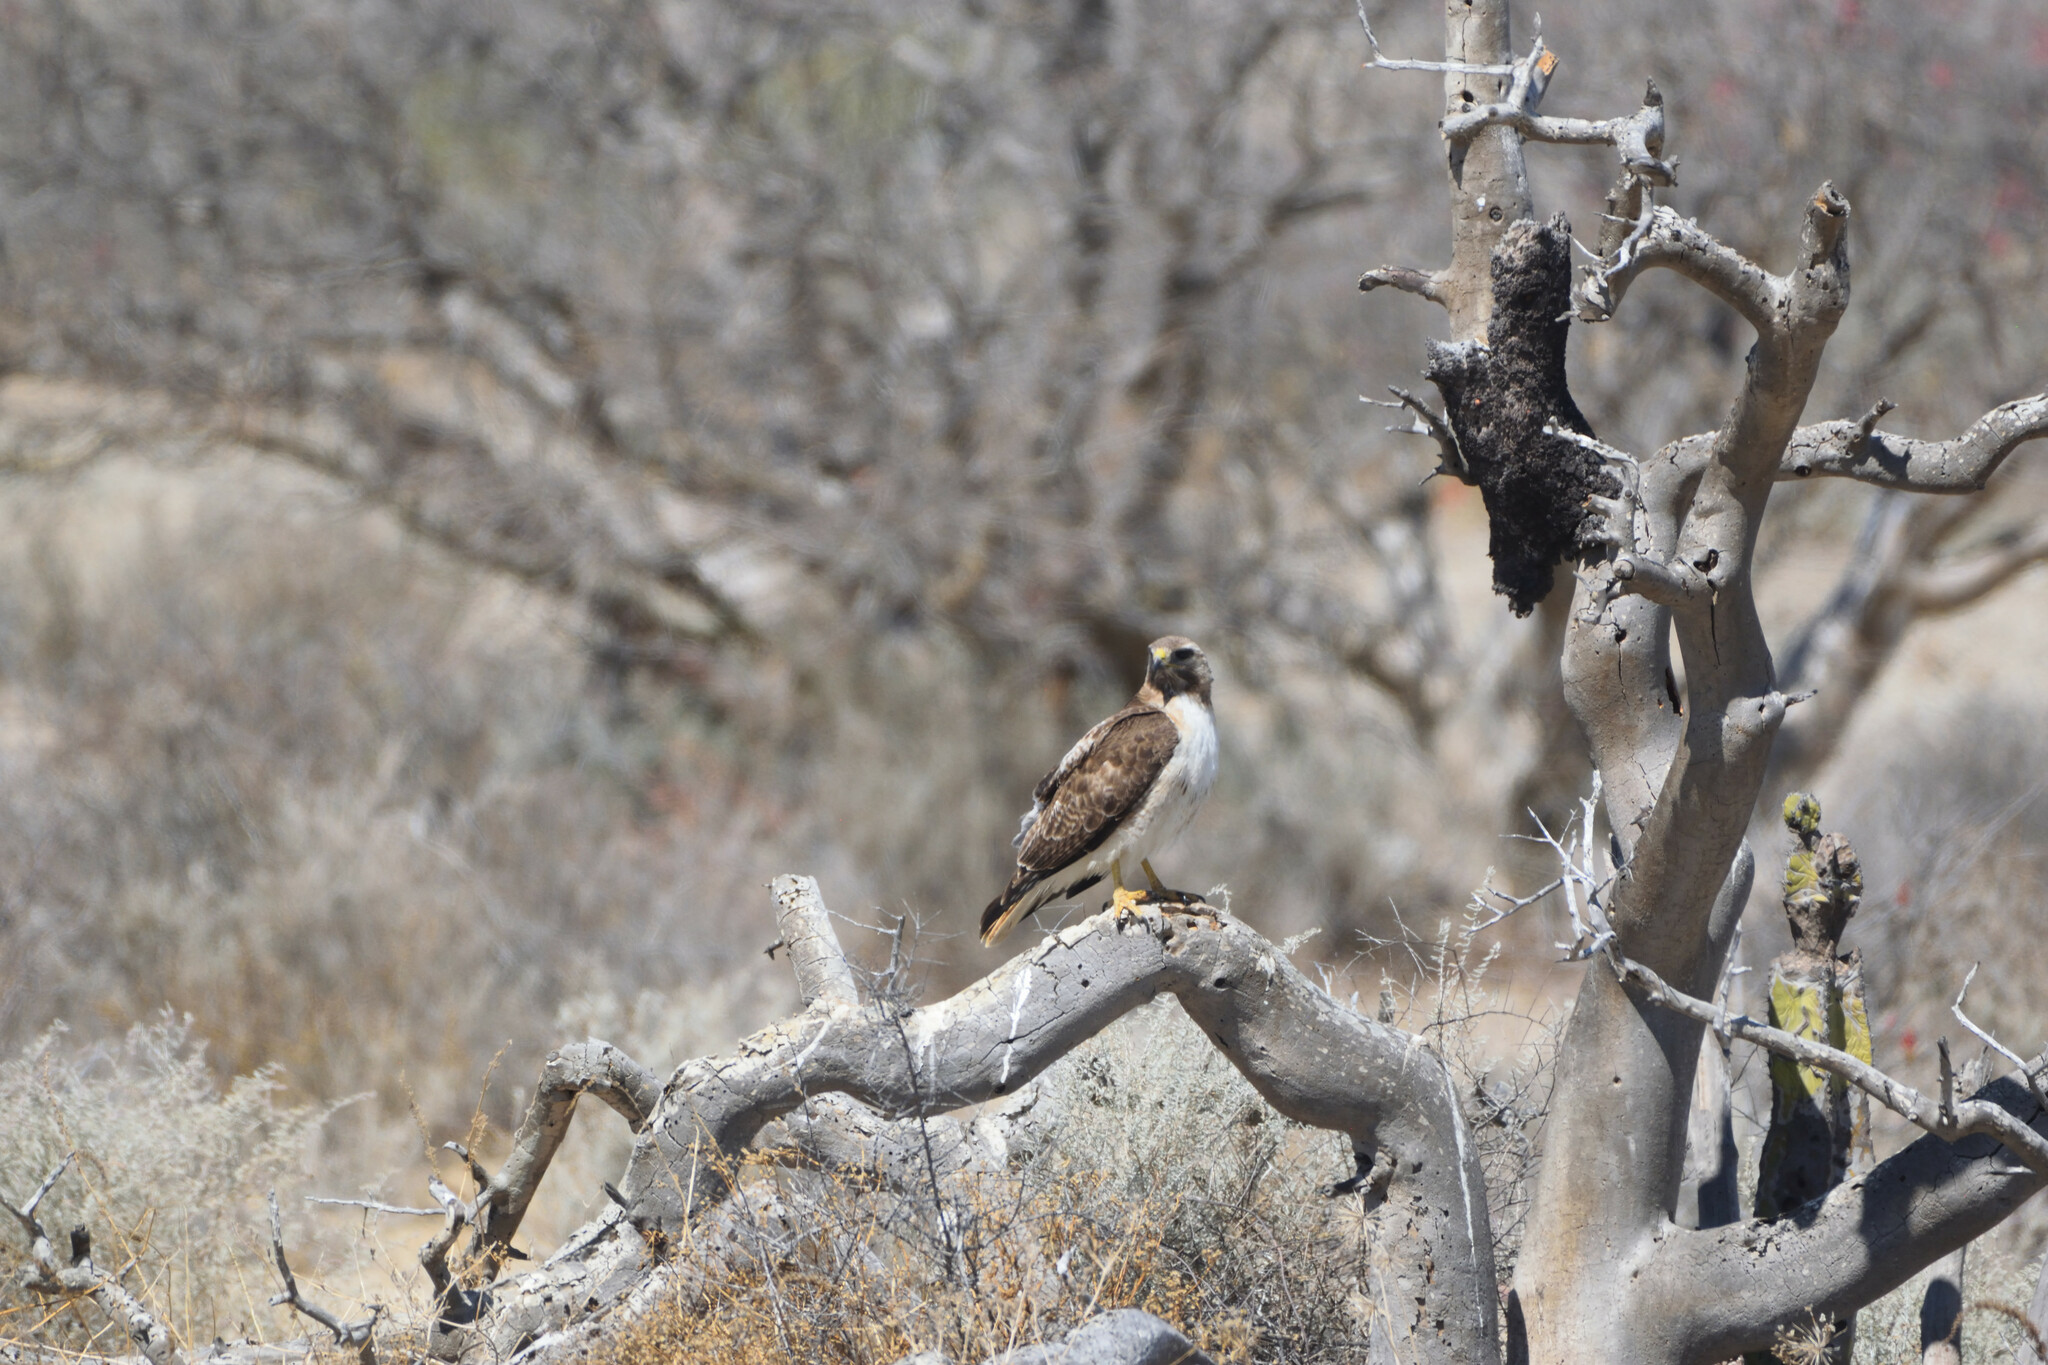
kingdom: Animalia
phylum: Chordata
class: Aves
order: Accipitriformes
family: Accipitridae
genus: Buteo
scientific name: Buteo jamaicensis
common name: Red-tailed hawk
